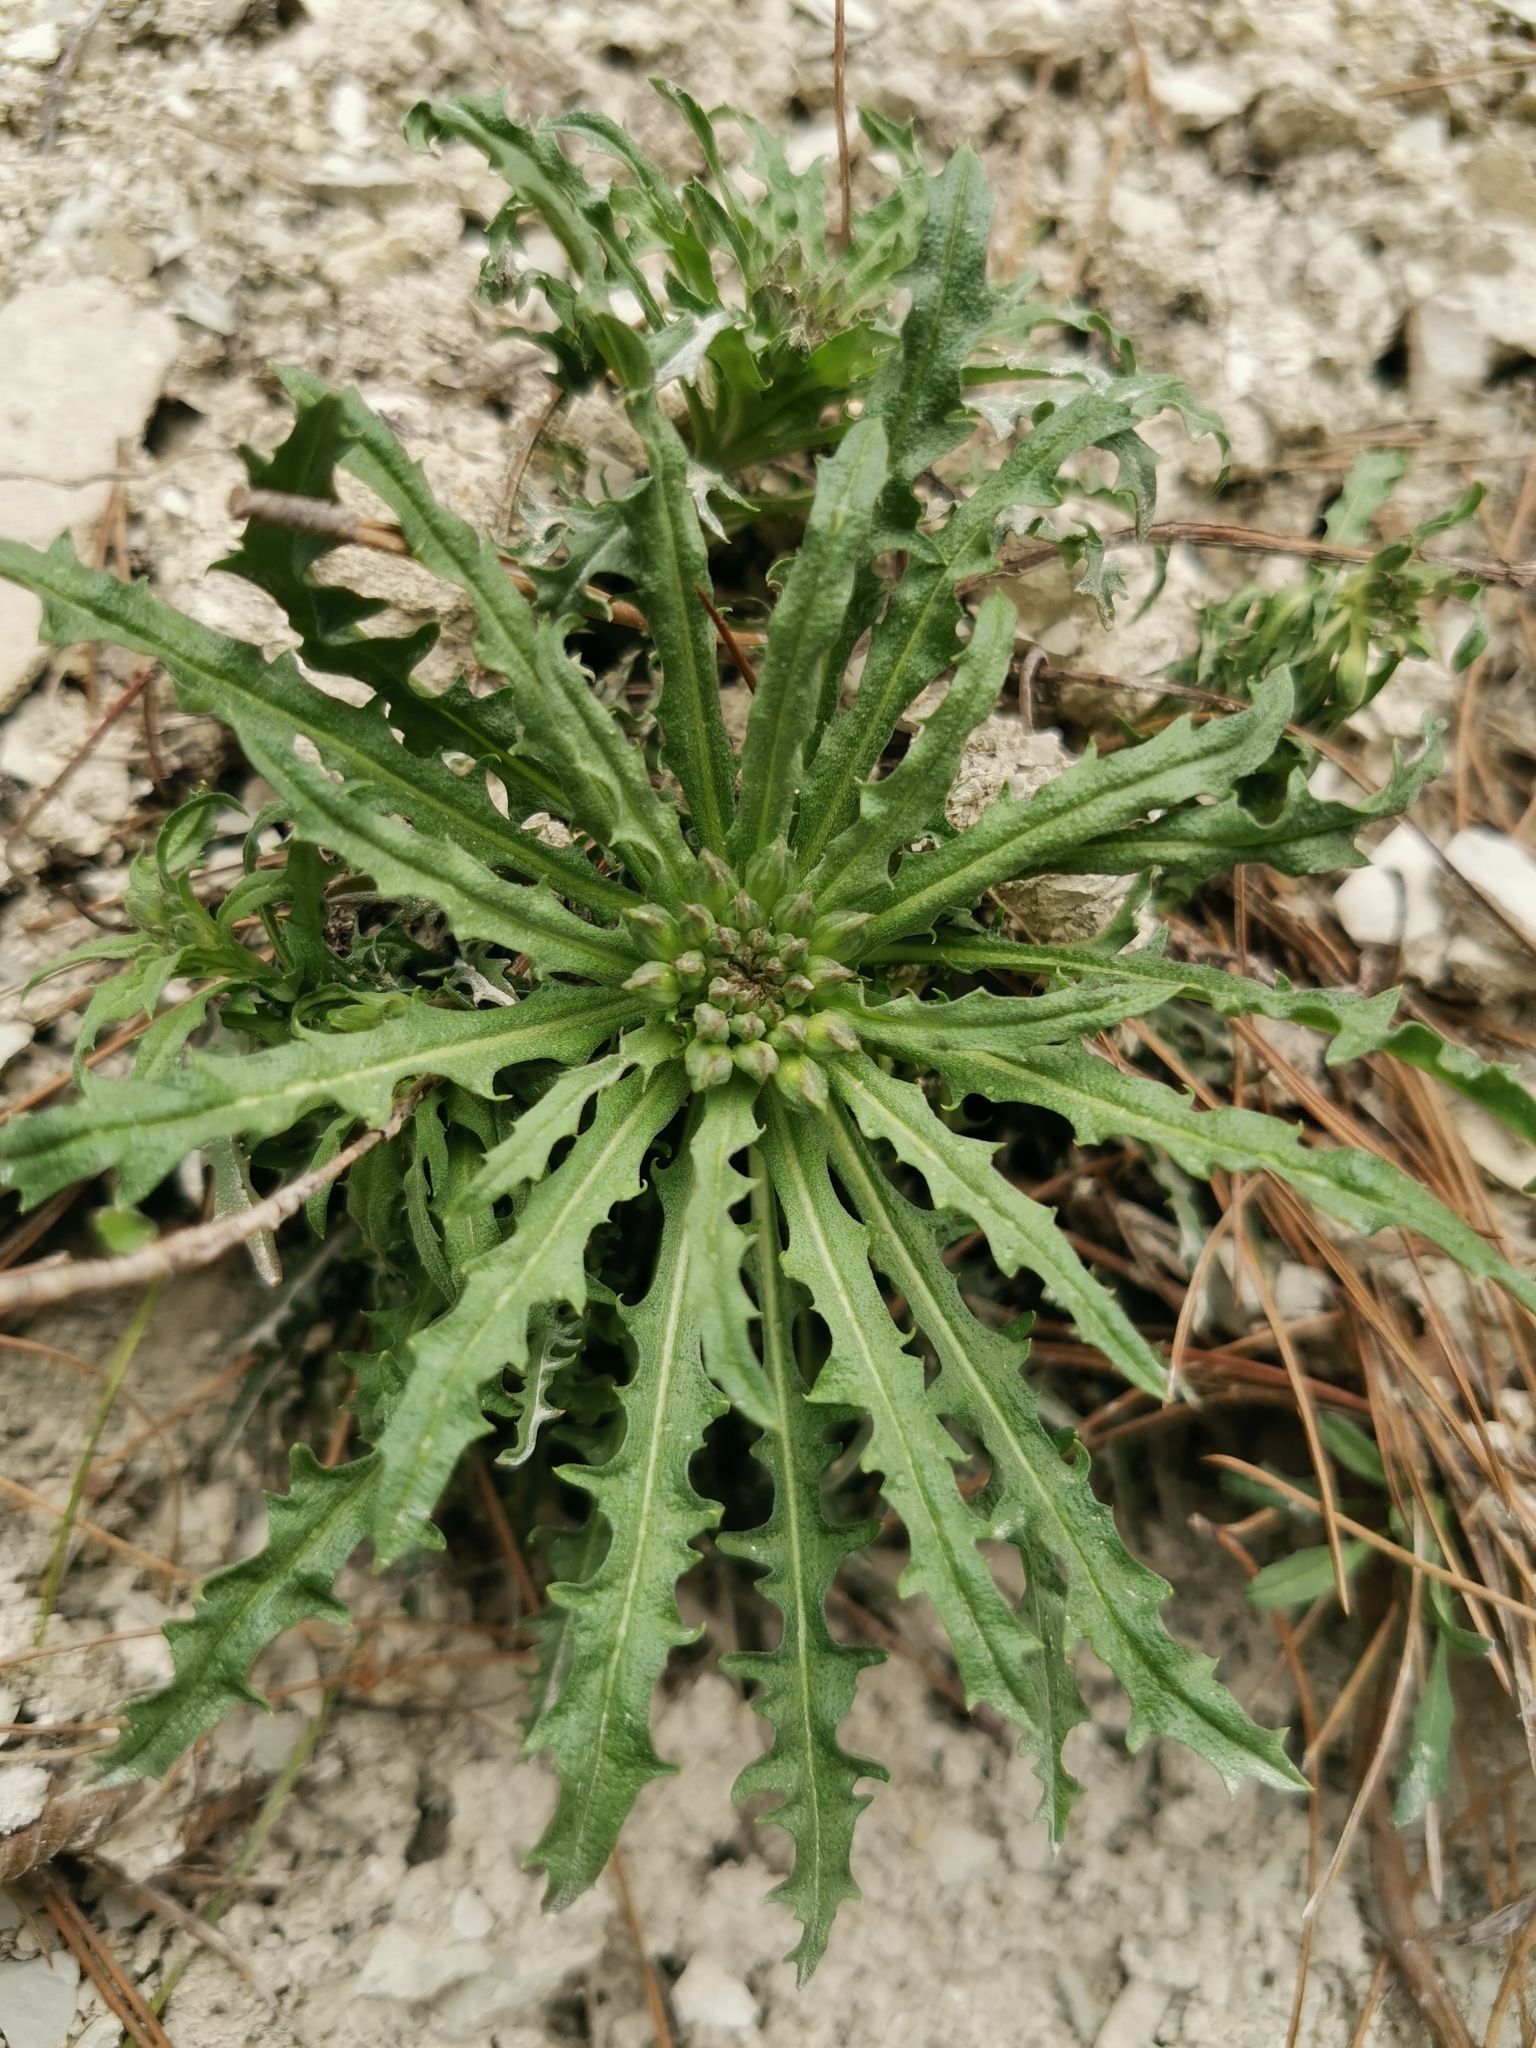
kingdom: Plantae
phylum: Tracheophyta
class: Magnoliopsida
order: Brassicales
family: Brassicaceae
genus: Erysimum
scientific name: Erysimum callicarpum
